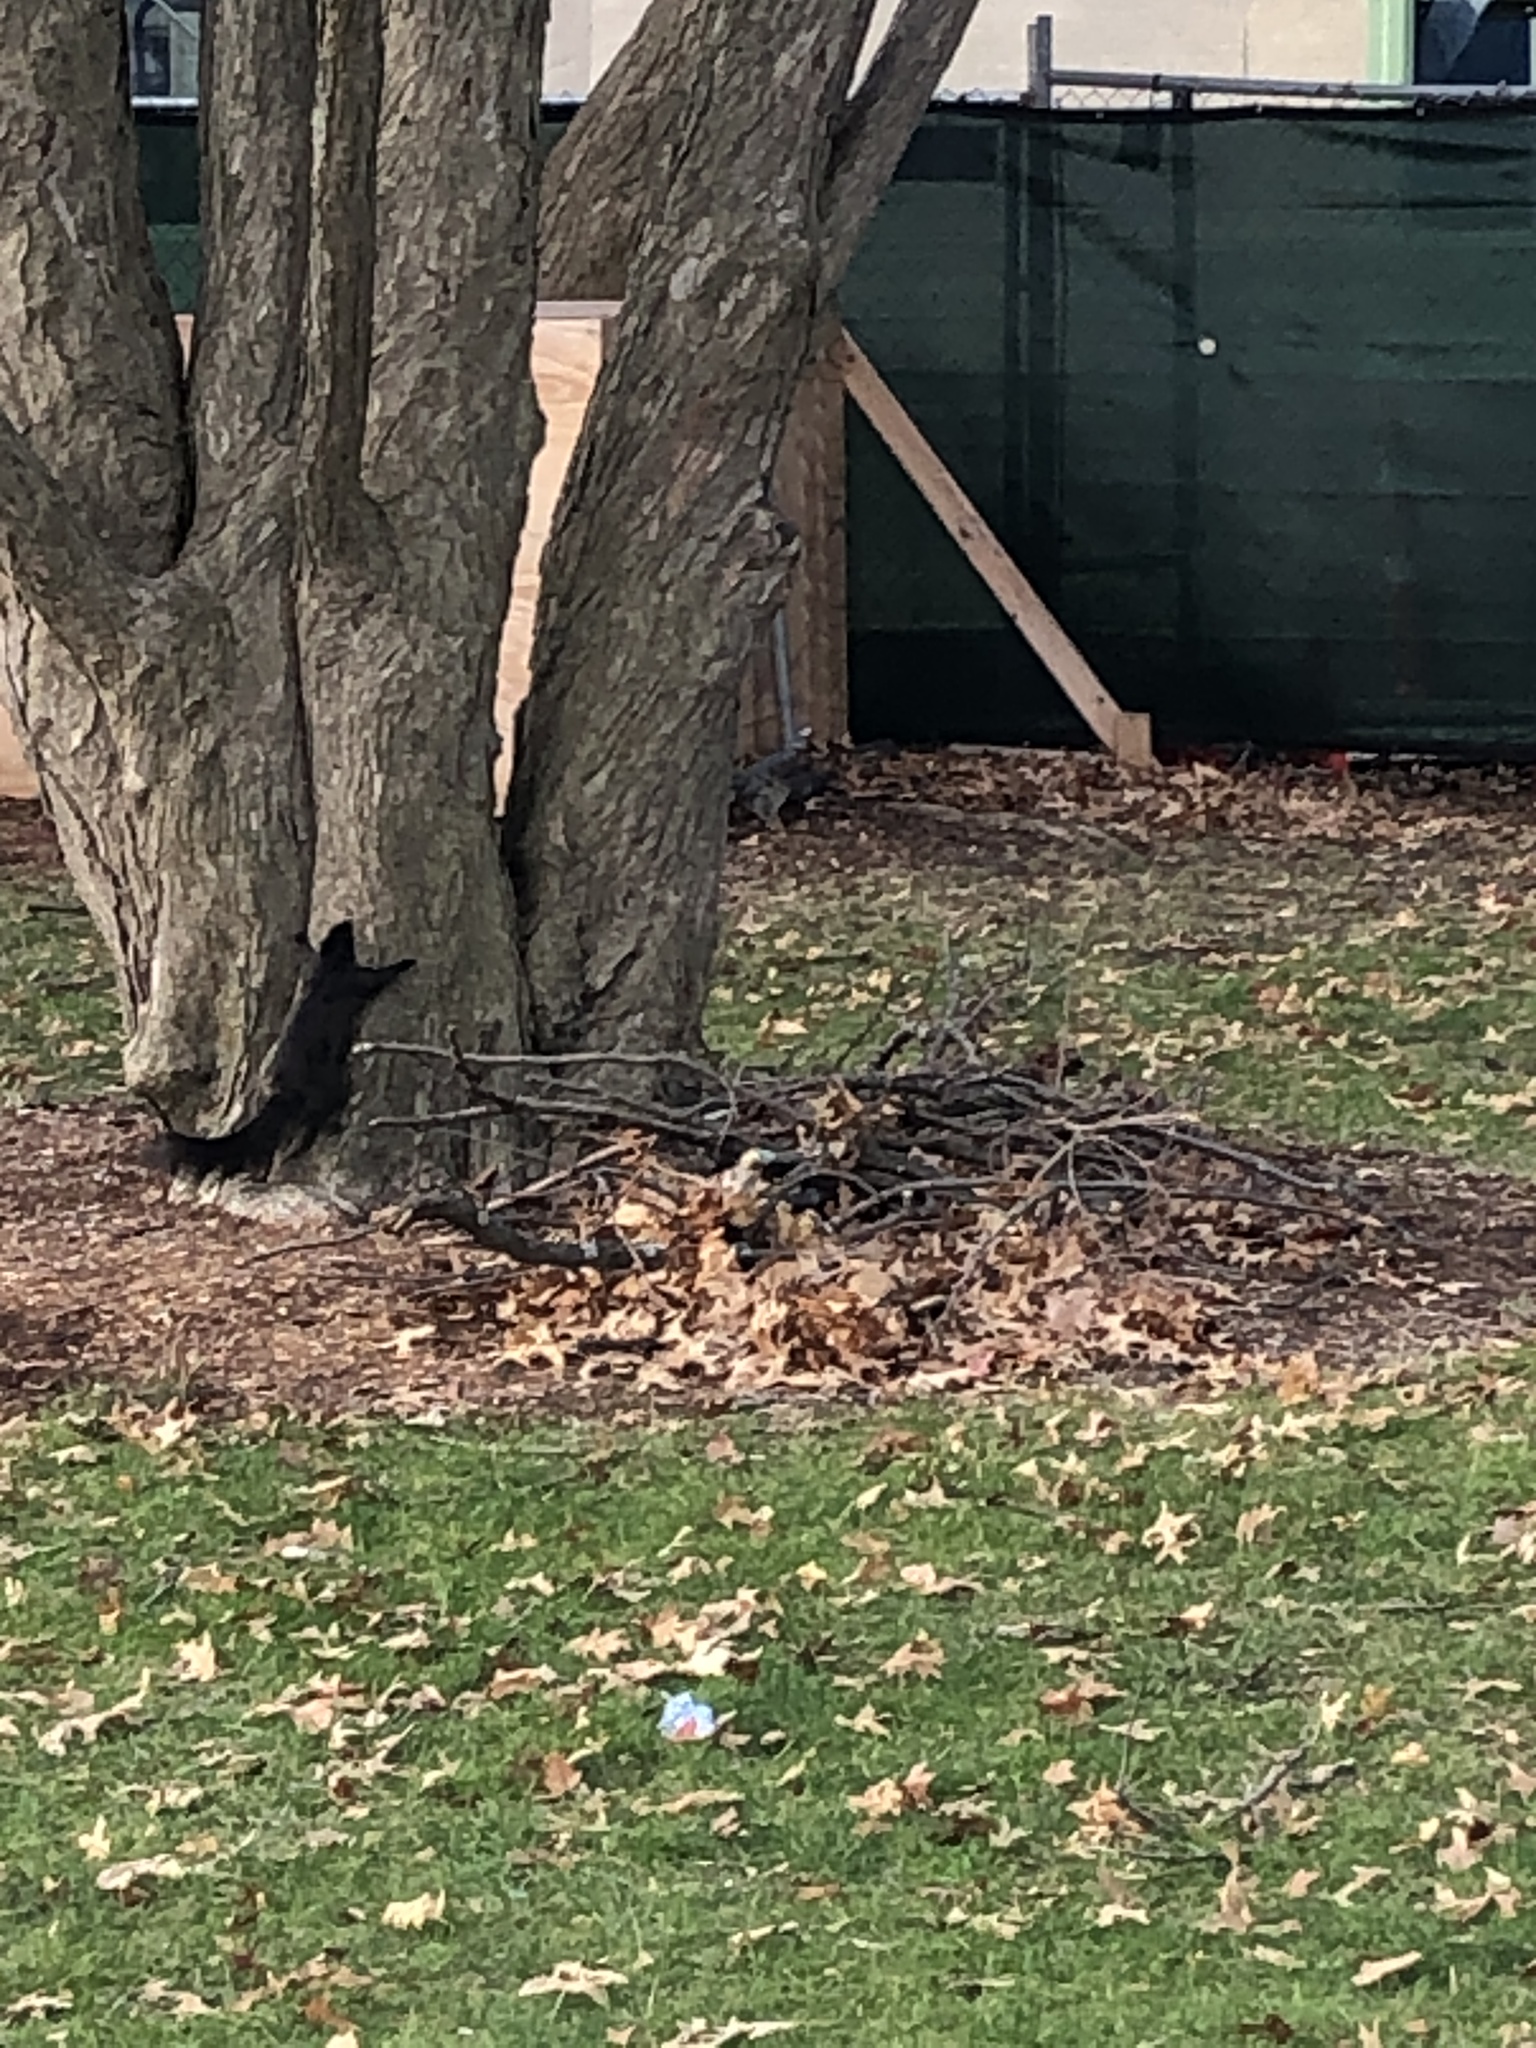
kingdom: Animalia
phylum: Chordata
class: Mammalia
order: Rodentia
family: Sciuridae
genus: Sciurus
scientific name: Sciurus carolinensis
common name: Eastern gray squirrel
